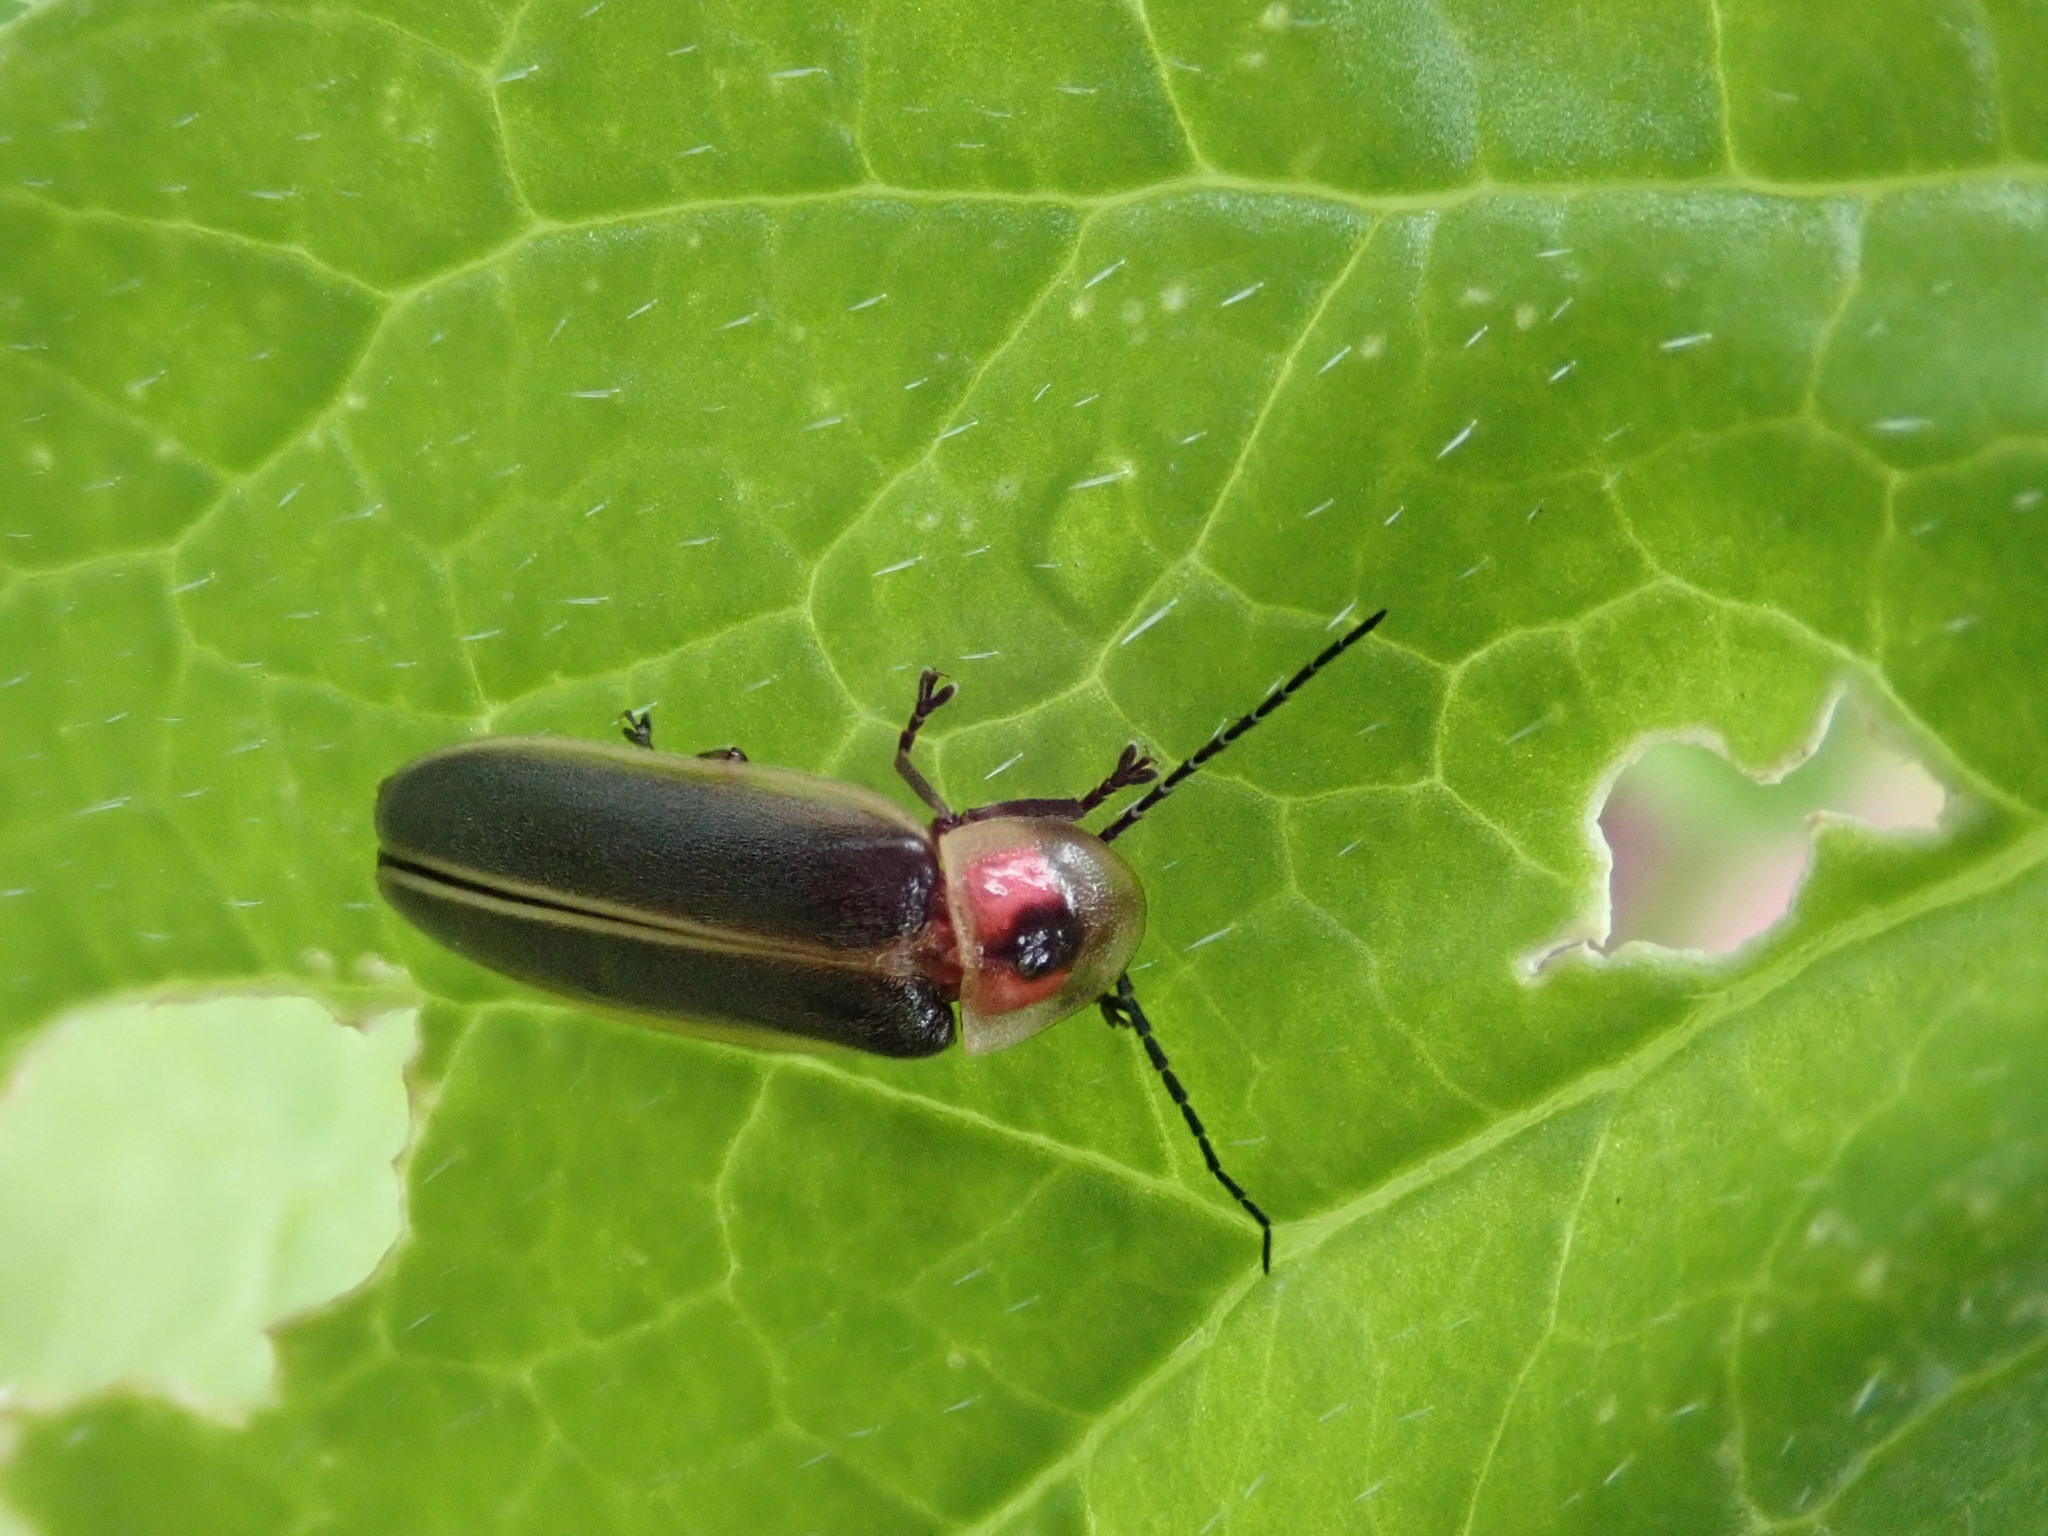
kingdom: Animalia
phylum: Arthropoda
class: Insecta
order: Coleoptera
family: Lampyridae
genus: Photinus
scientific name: Photinus pyralis
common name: Big dipper firefly
